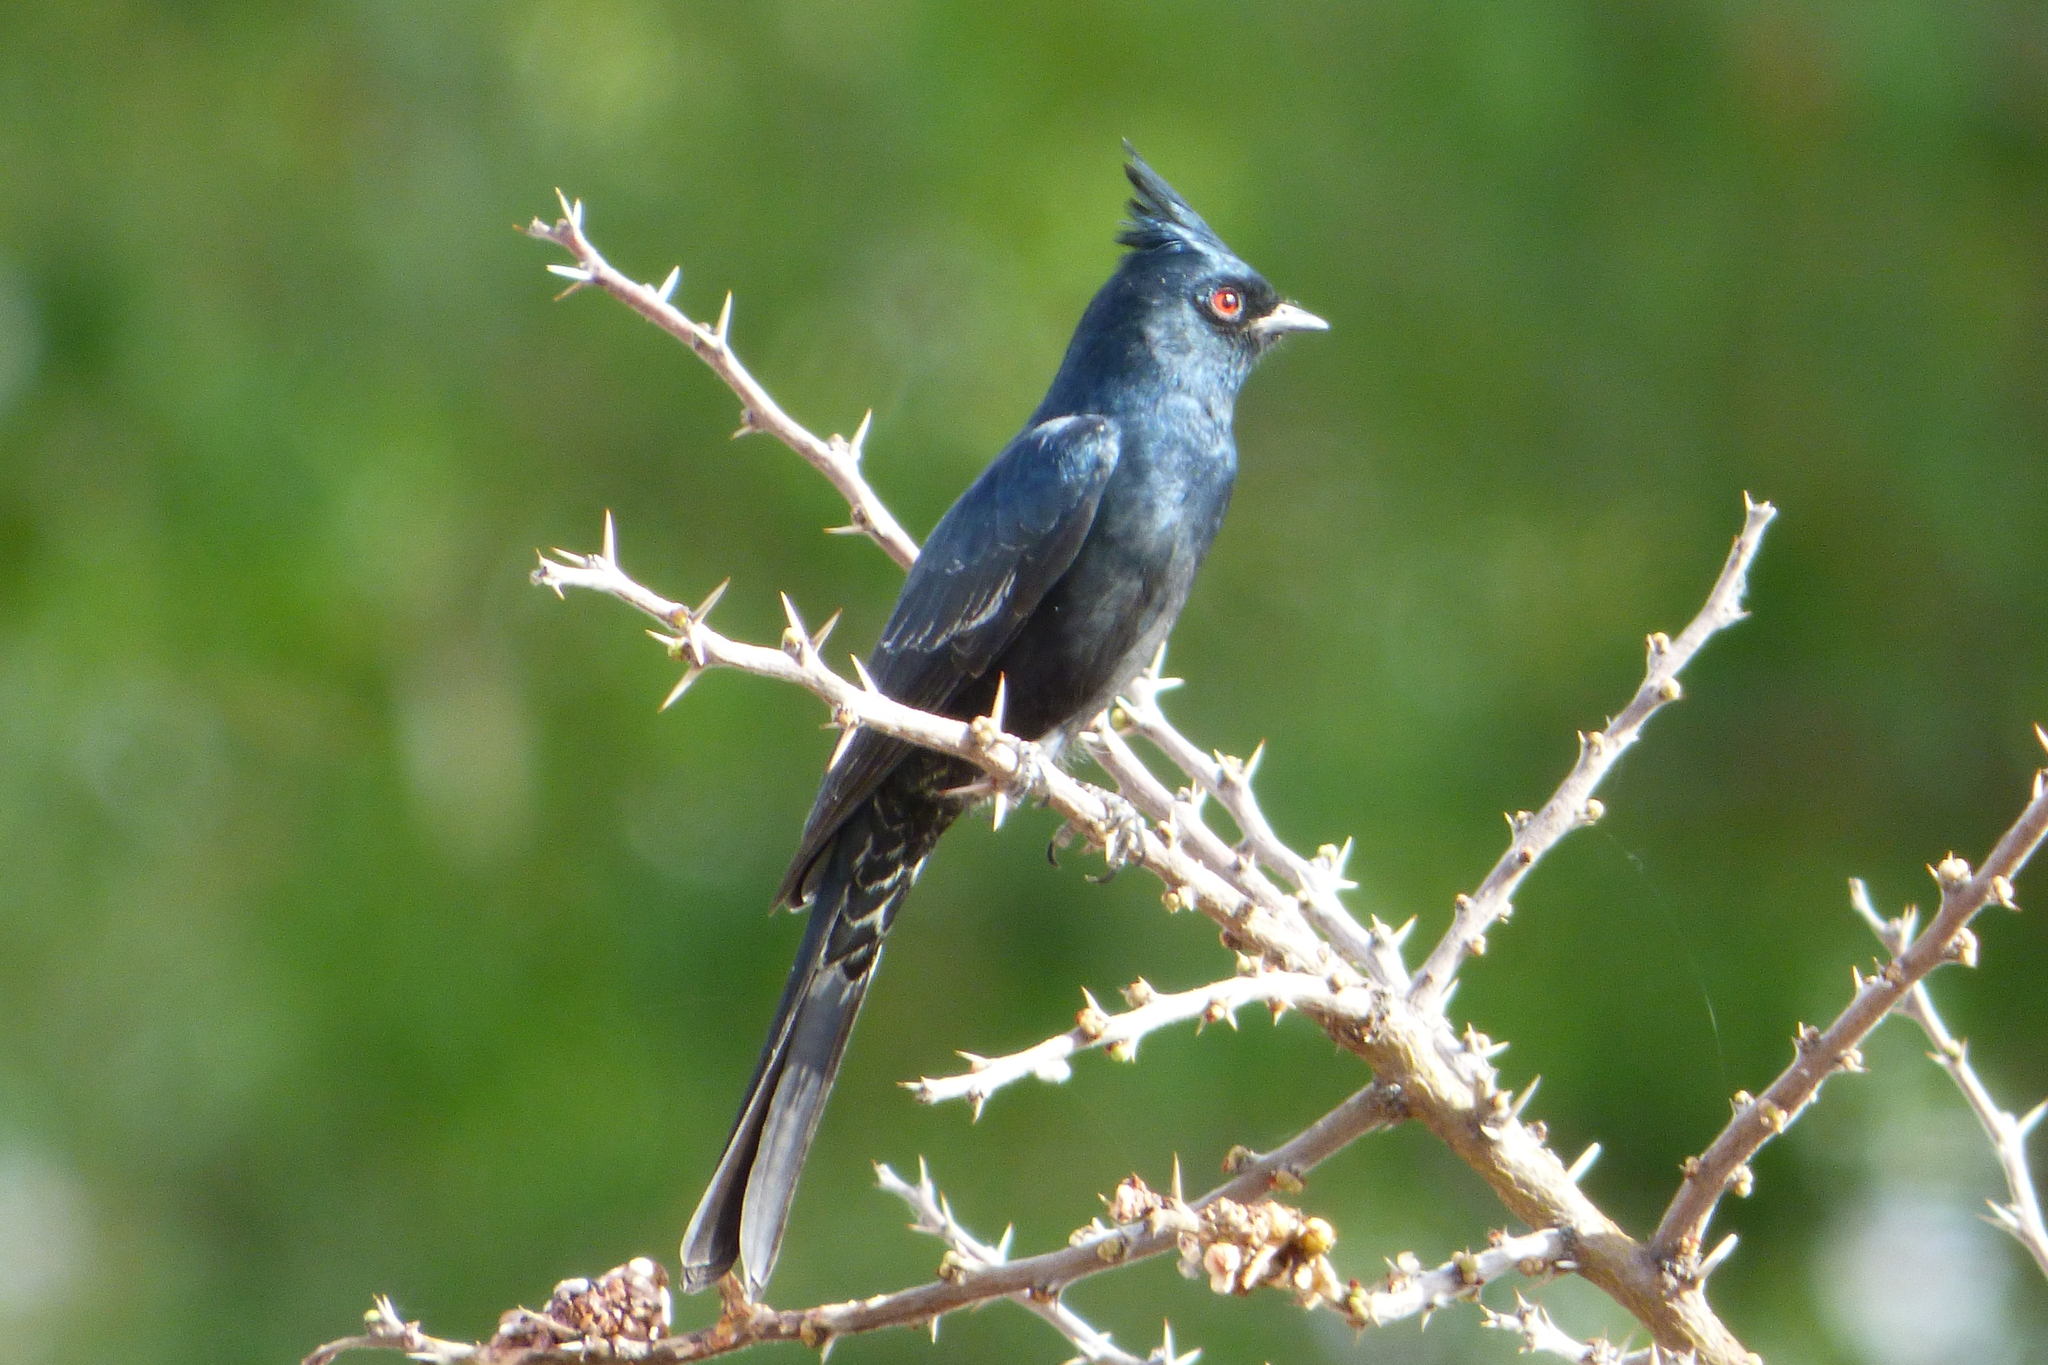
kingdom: Animalia
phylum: Chordata
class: Aves
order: Passeriformes
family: Ptilogonatidae
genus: Phainopepla
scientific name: Phainopepla nitens
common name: Phainopepla
